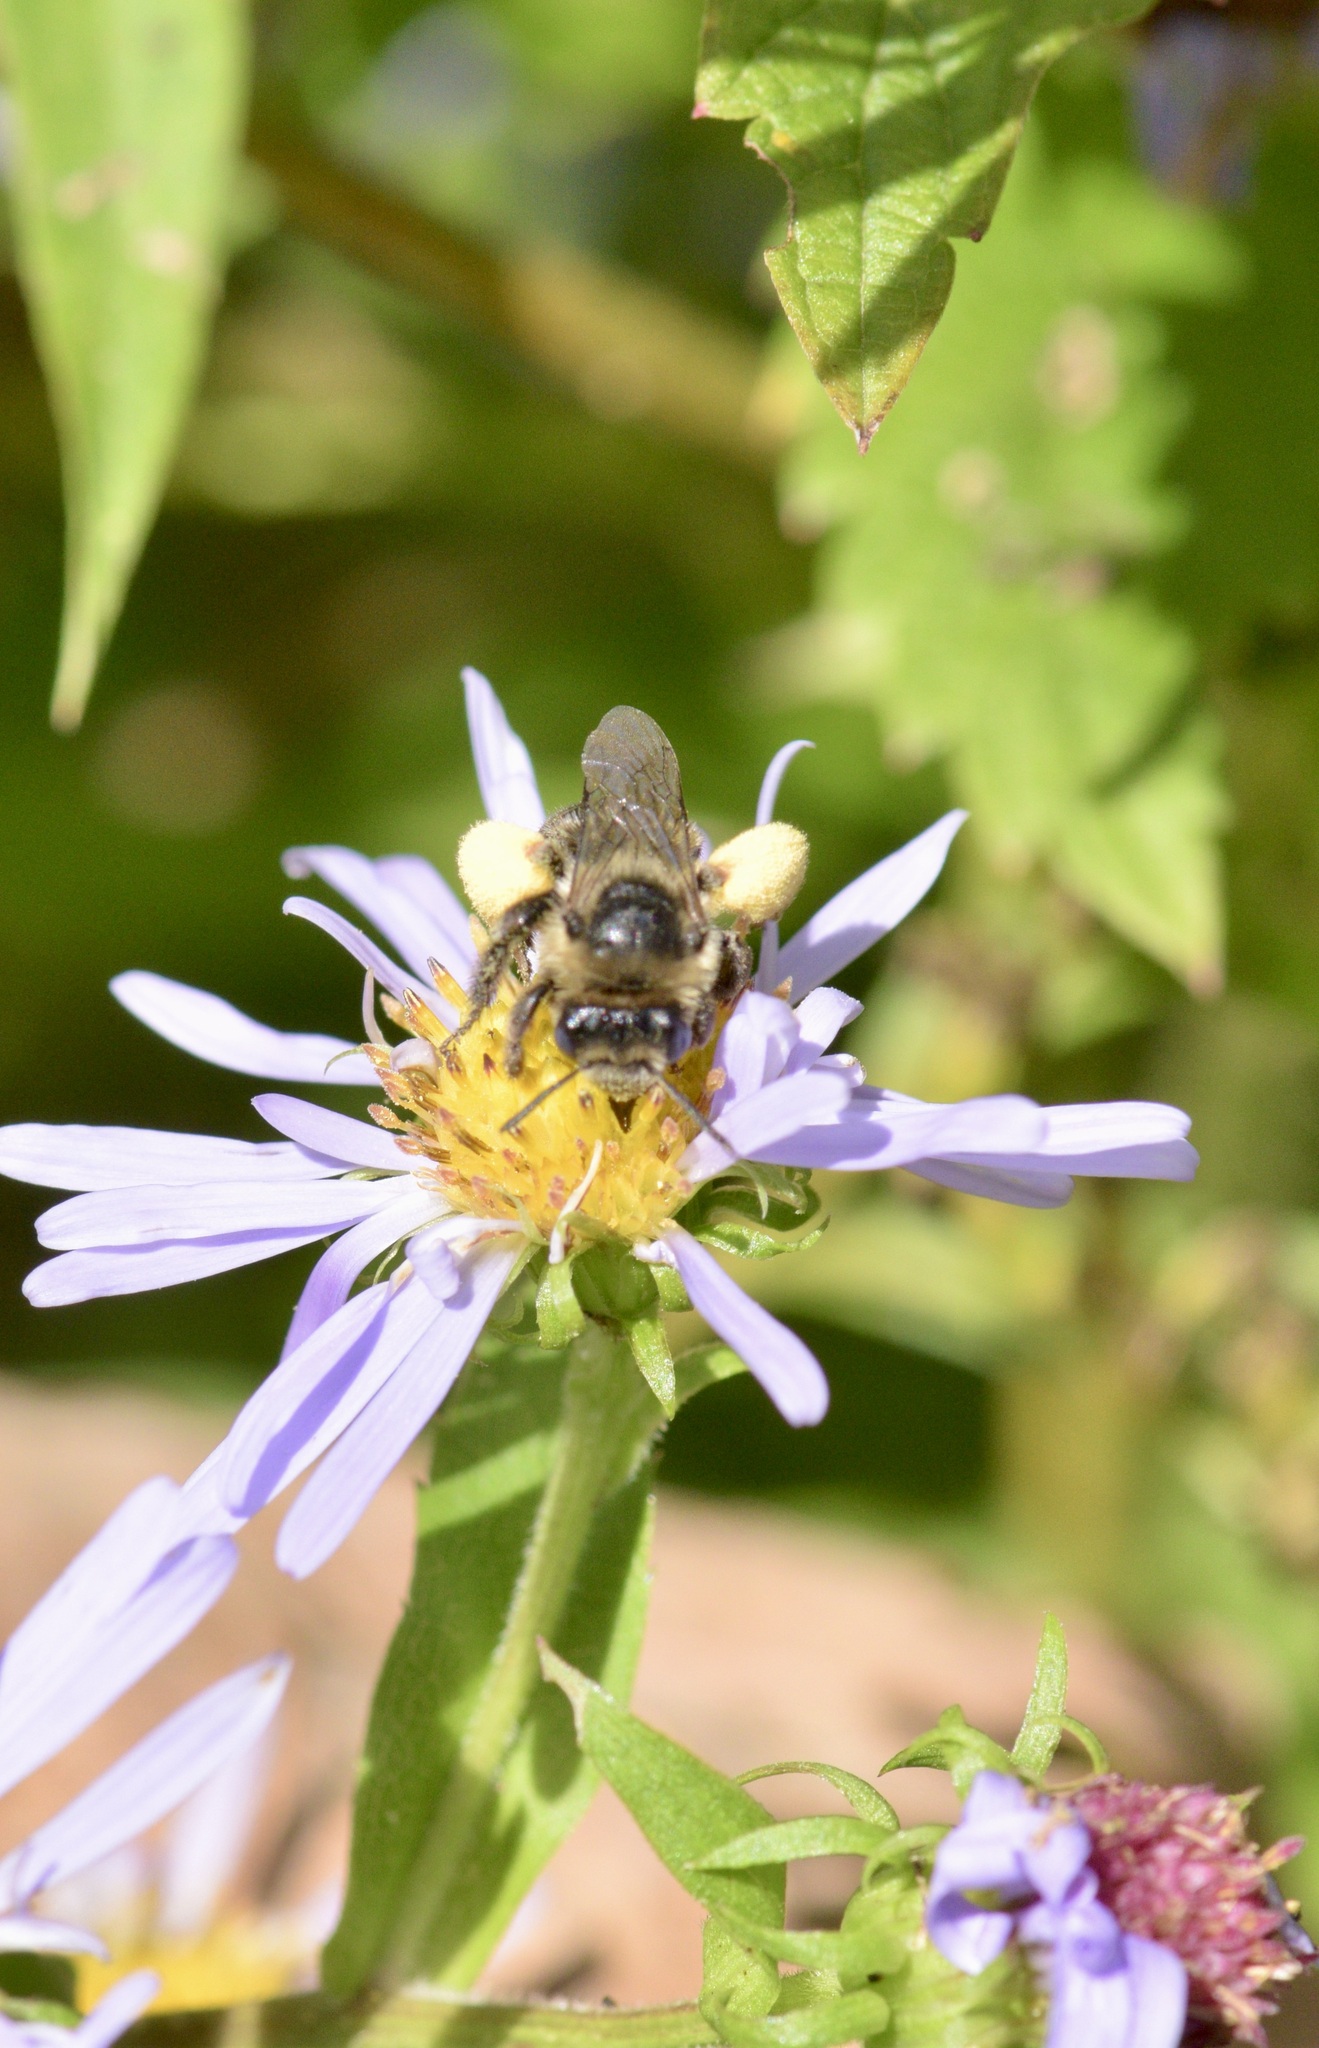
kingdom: Animalia
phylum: Arthropoda
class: Insecta
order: Hymenoptera
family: Apidae
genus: Melissodes
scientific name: Melissodes druriellus
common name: Drury's long-horned bee
